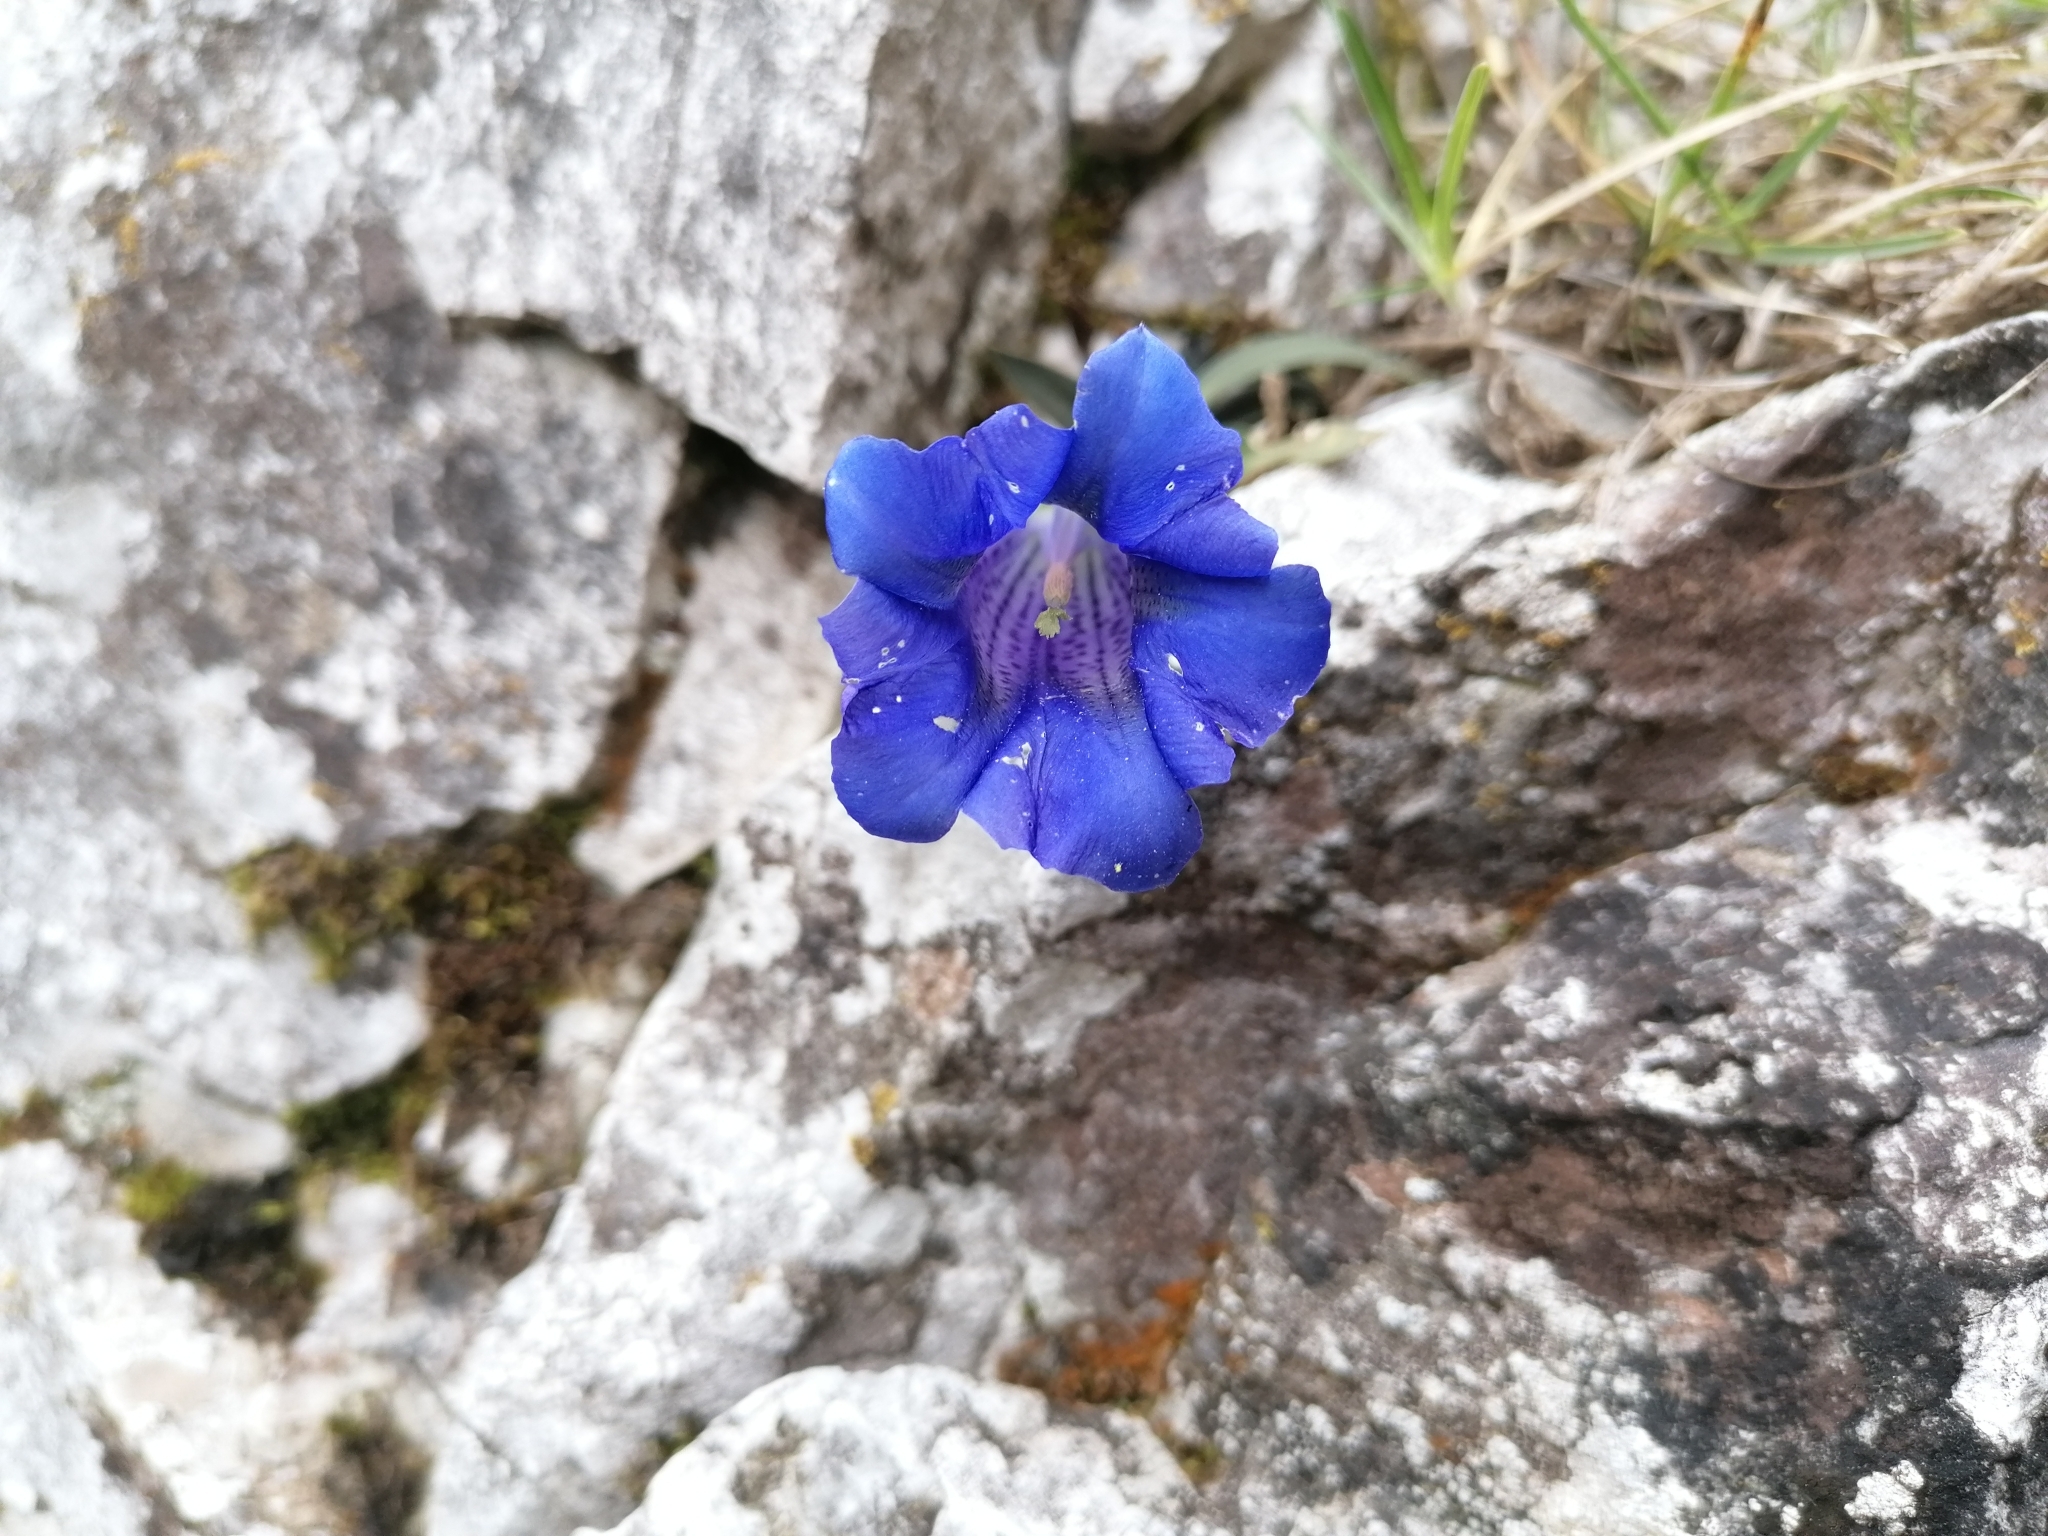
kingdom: Plantae
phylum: Tracheophyta
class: Magnoliopsida
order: Gentianales
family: Gentianaceae
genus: Gentiana
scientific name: Gentiana clusii
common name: Trumpet gentian
